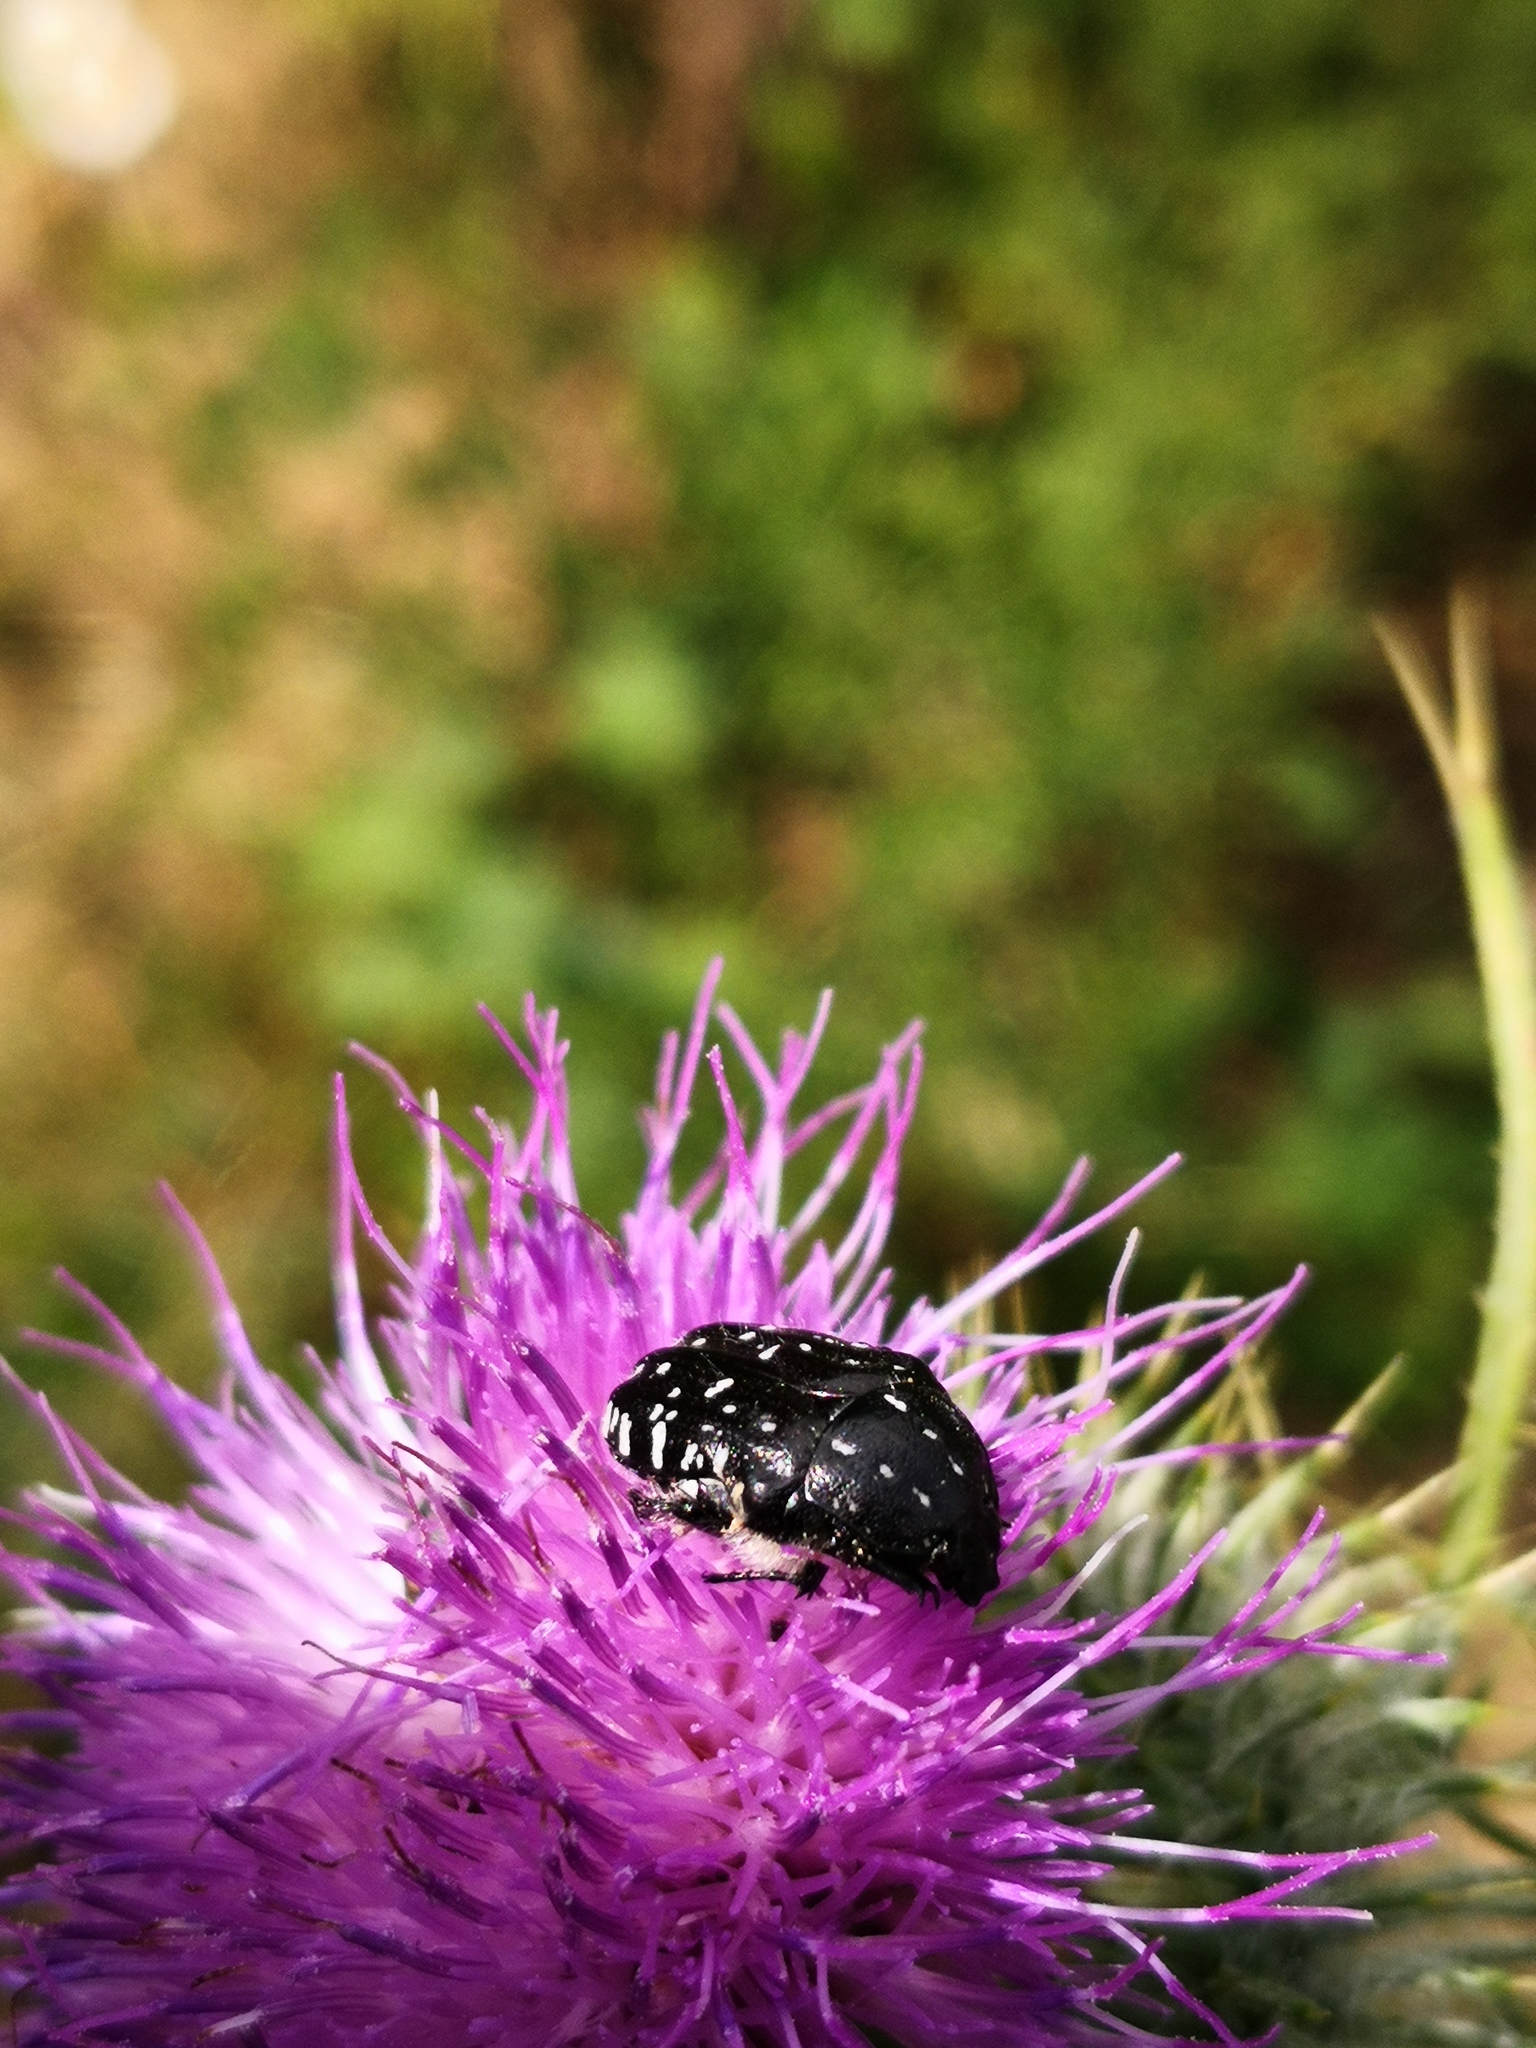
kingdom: Animalia
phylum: Arthropoda
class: Insecta
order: Coleoptera
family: Scarabaeidae
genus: Oxythyrea
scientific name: Oxythyrea funesta
